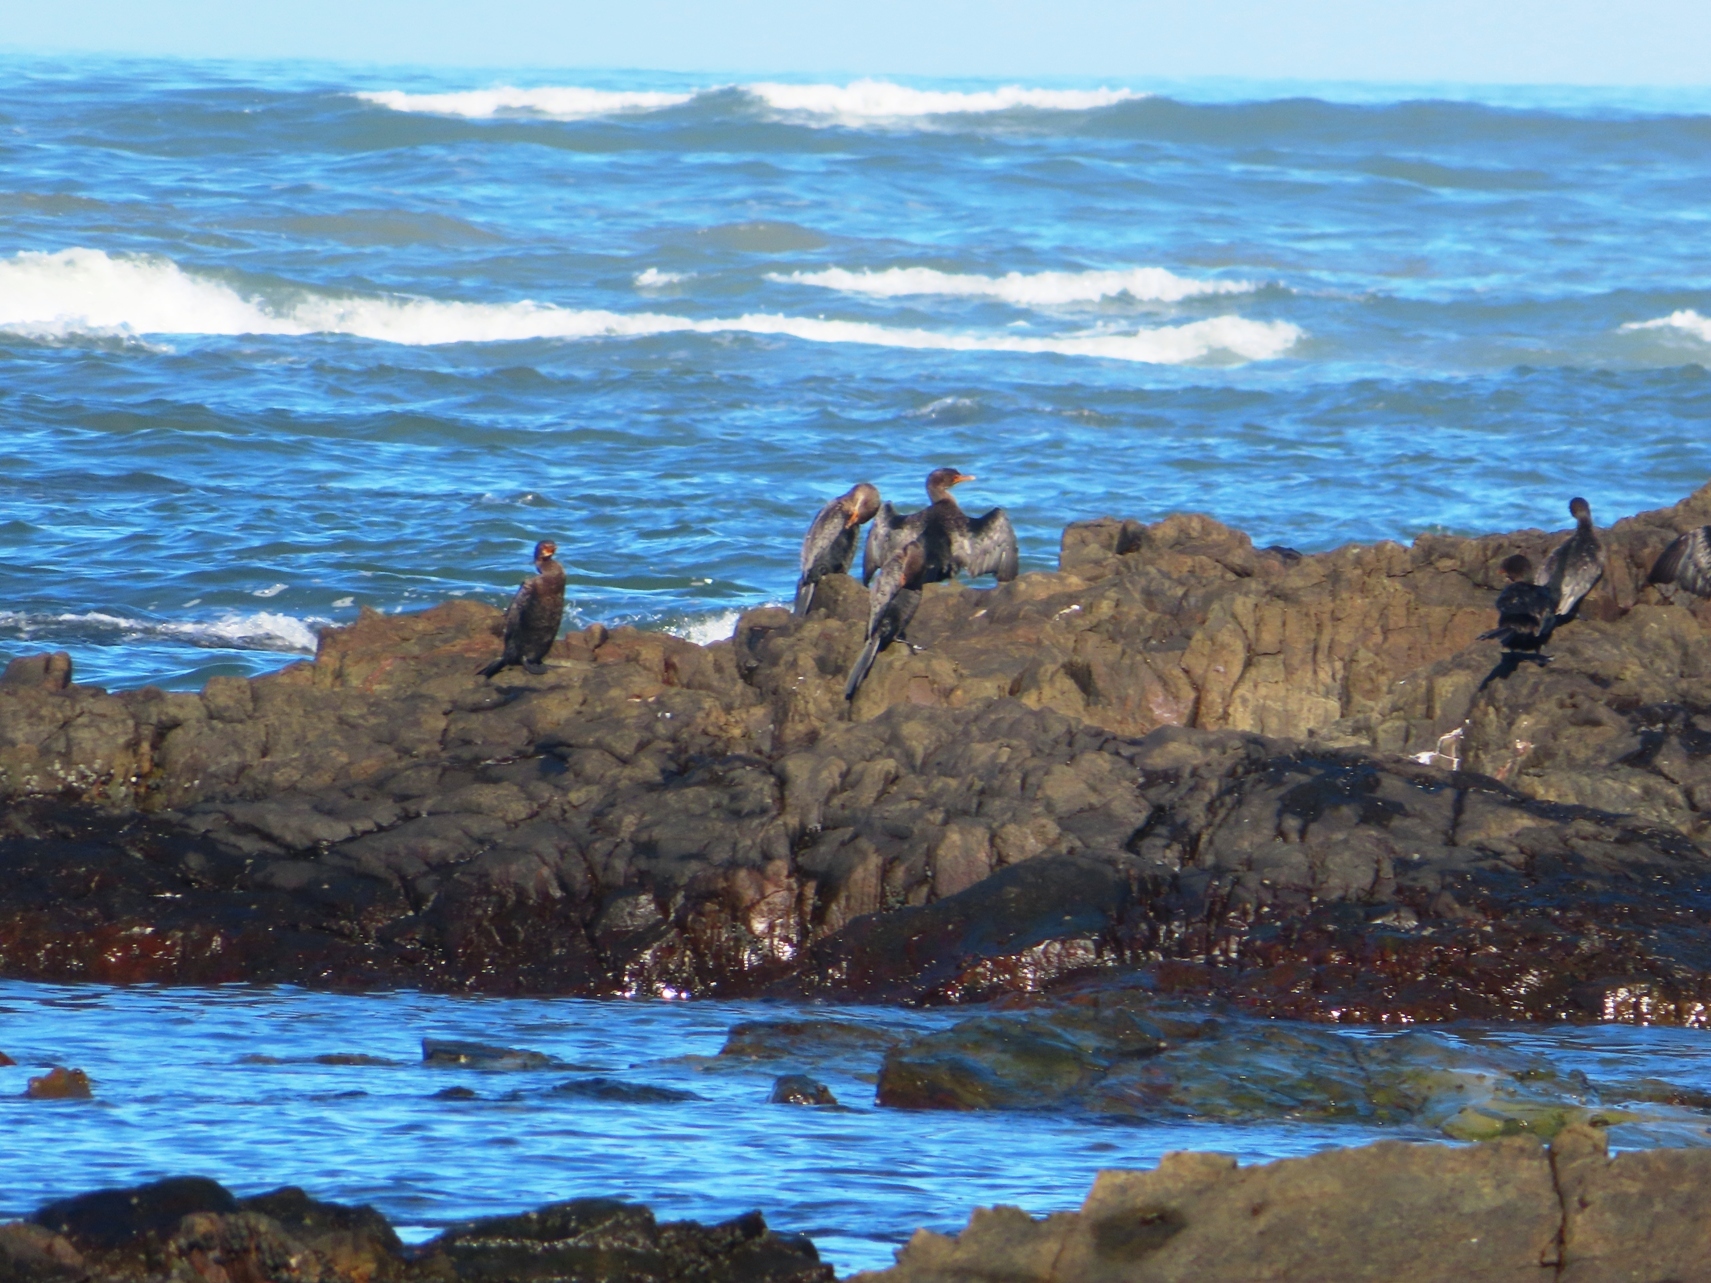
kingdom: Animalia
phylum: Chordata
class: Aves
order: Suliformes
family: Phalacrocoracidae
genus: Microcarbo
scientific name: Microcarbo coronatus
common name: Crowned cormorant
